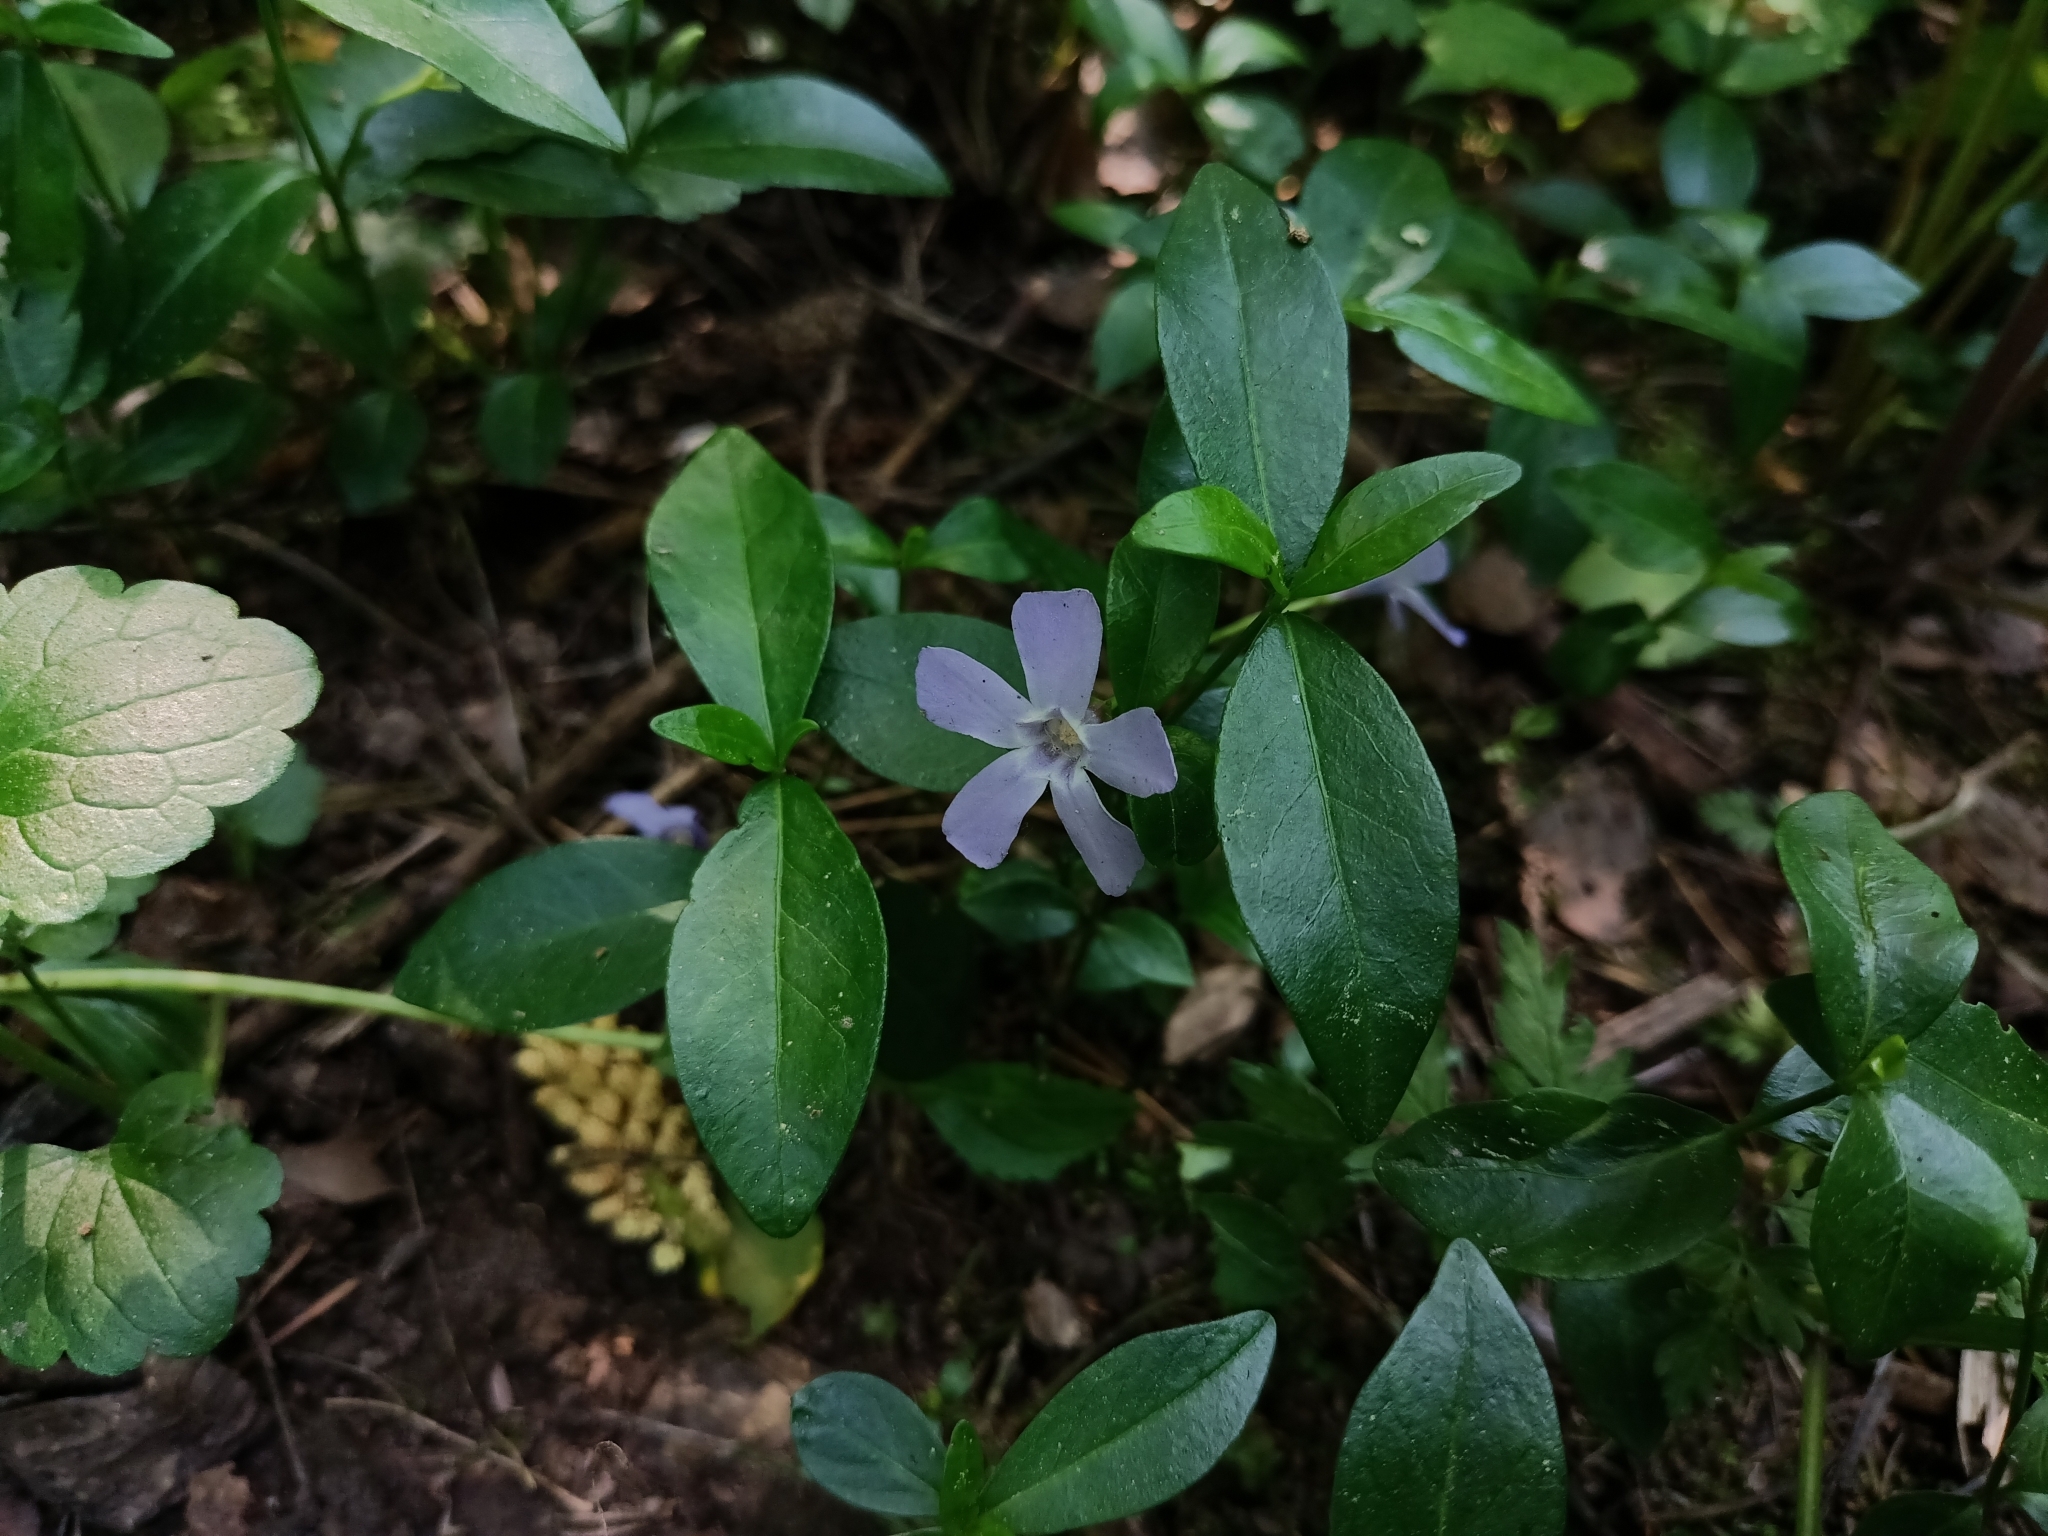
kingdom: Plantae
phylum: Tracheophyta
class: Magnoliopsida
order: Gentianales
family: Apocynaceae
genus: Vinca
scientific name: Vinca minor
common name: Lesser periwinkle
